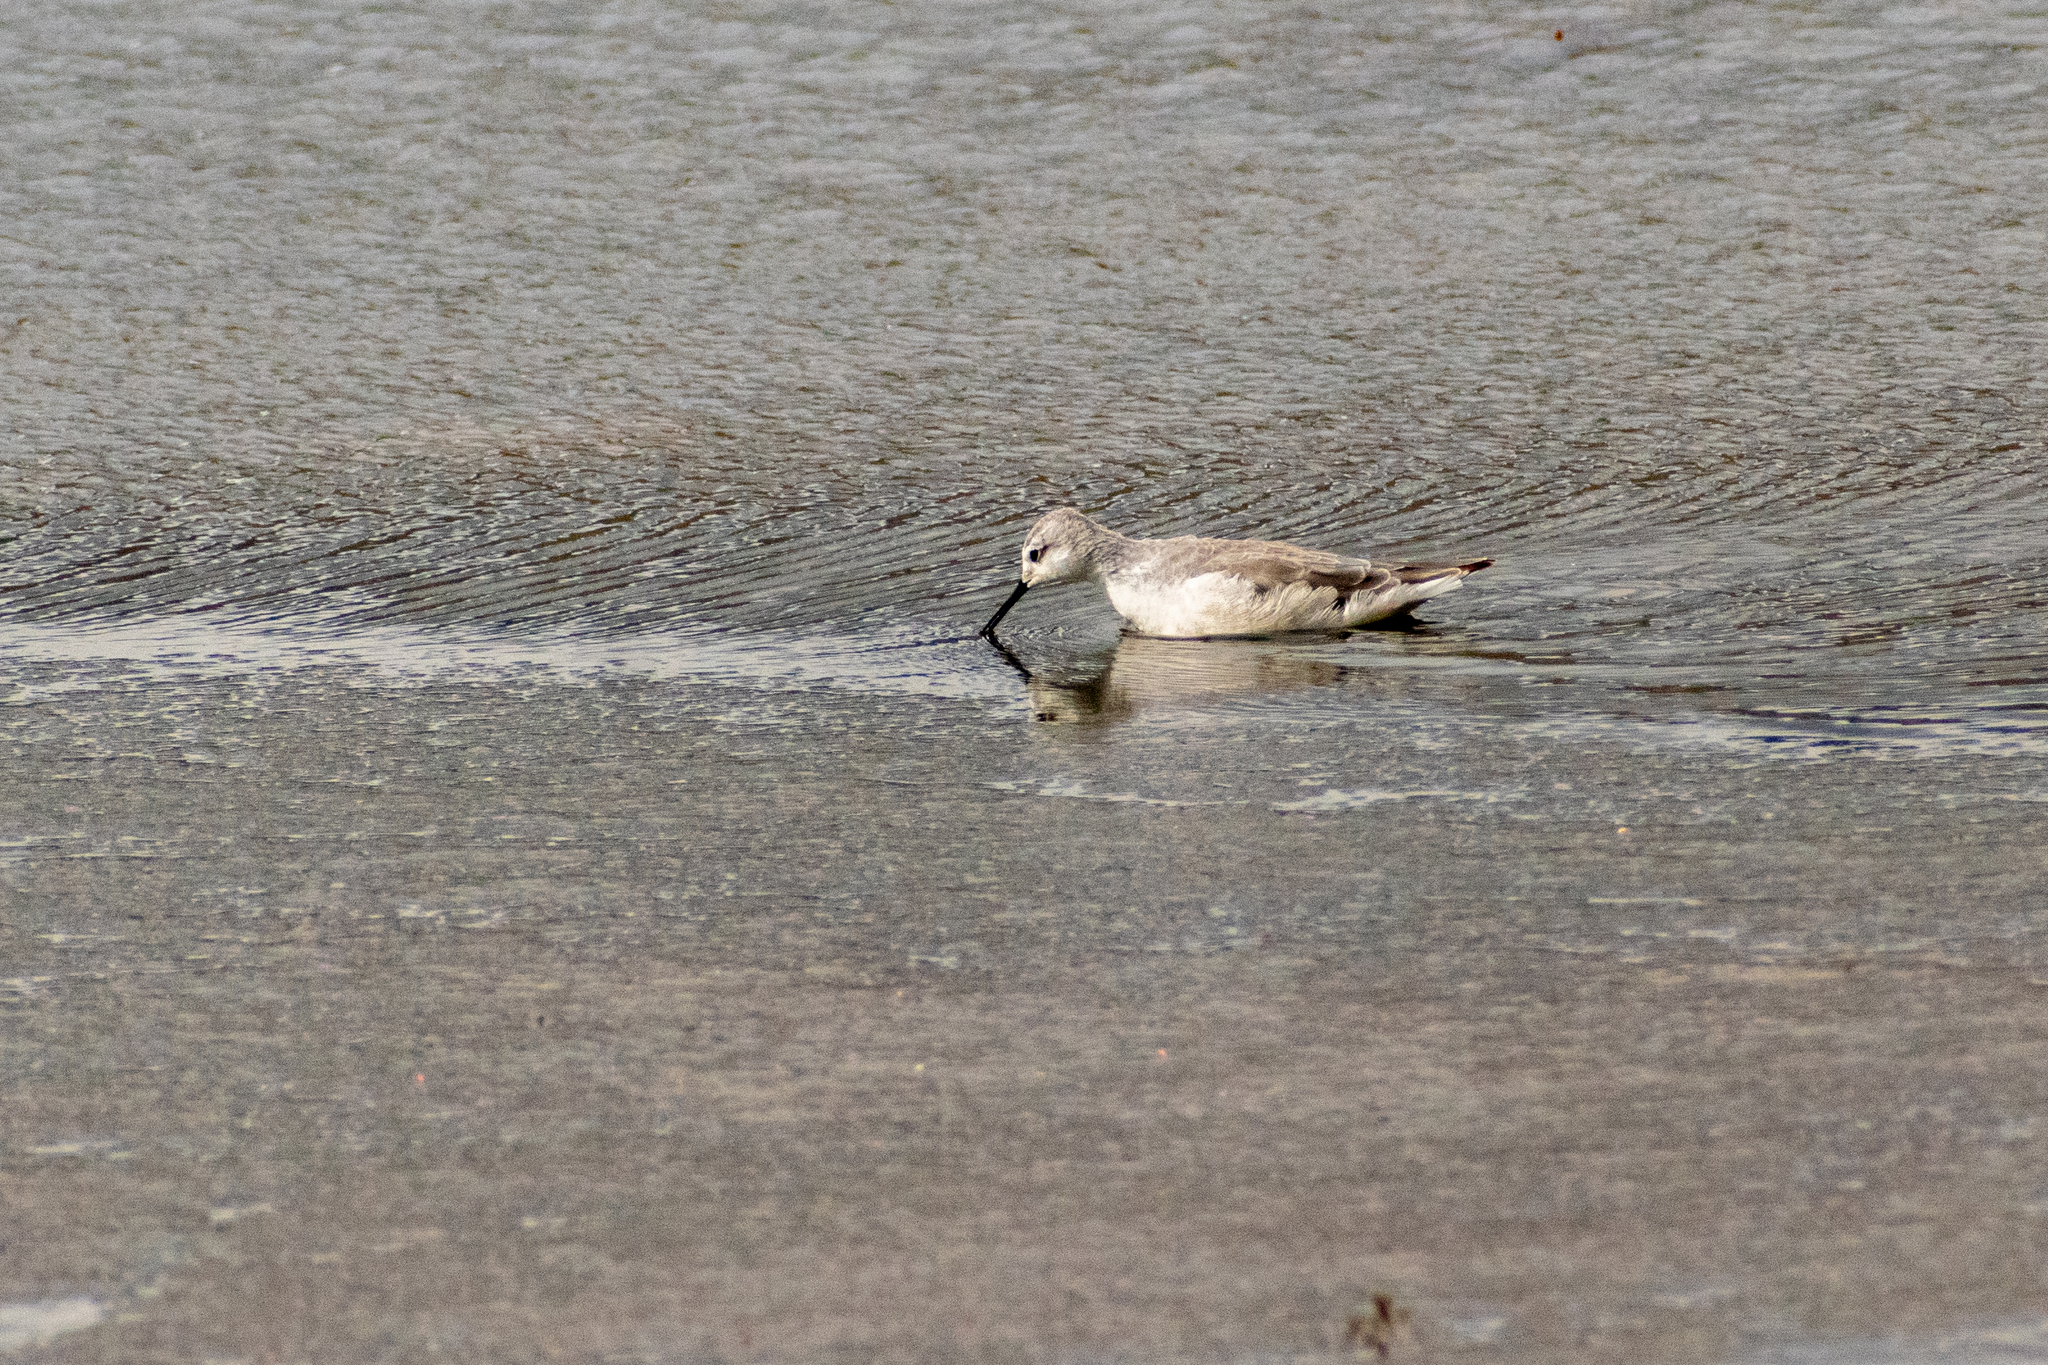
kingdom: Animalia
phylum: Chordata
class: Aves
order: Charadriiformes
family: Scolopacidae
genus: Phalaropus
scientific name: Phalaropus tricolor
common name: Wilson's phalarope
